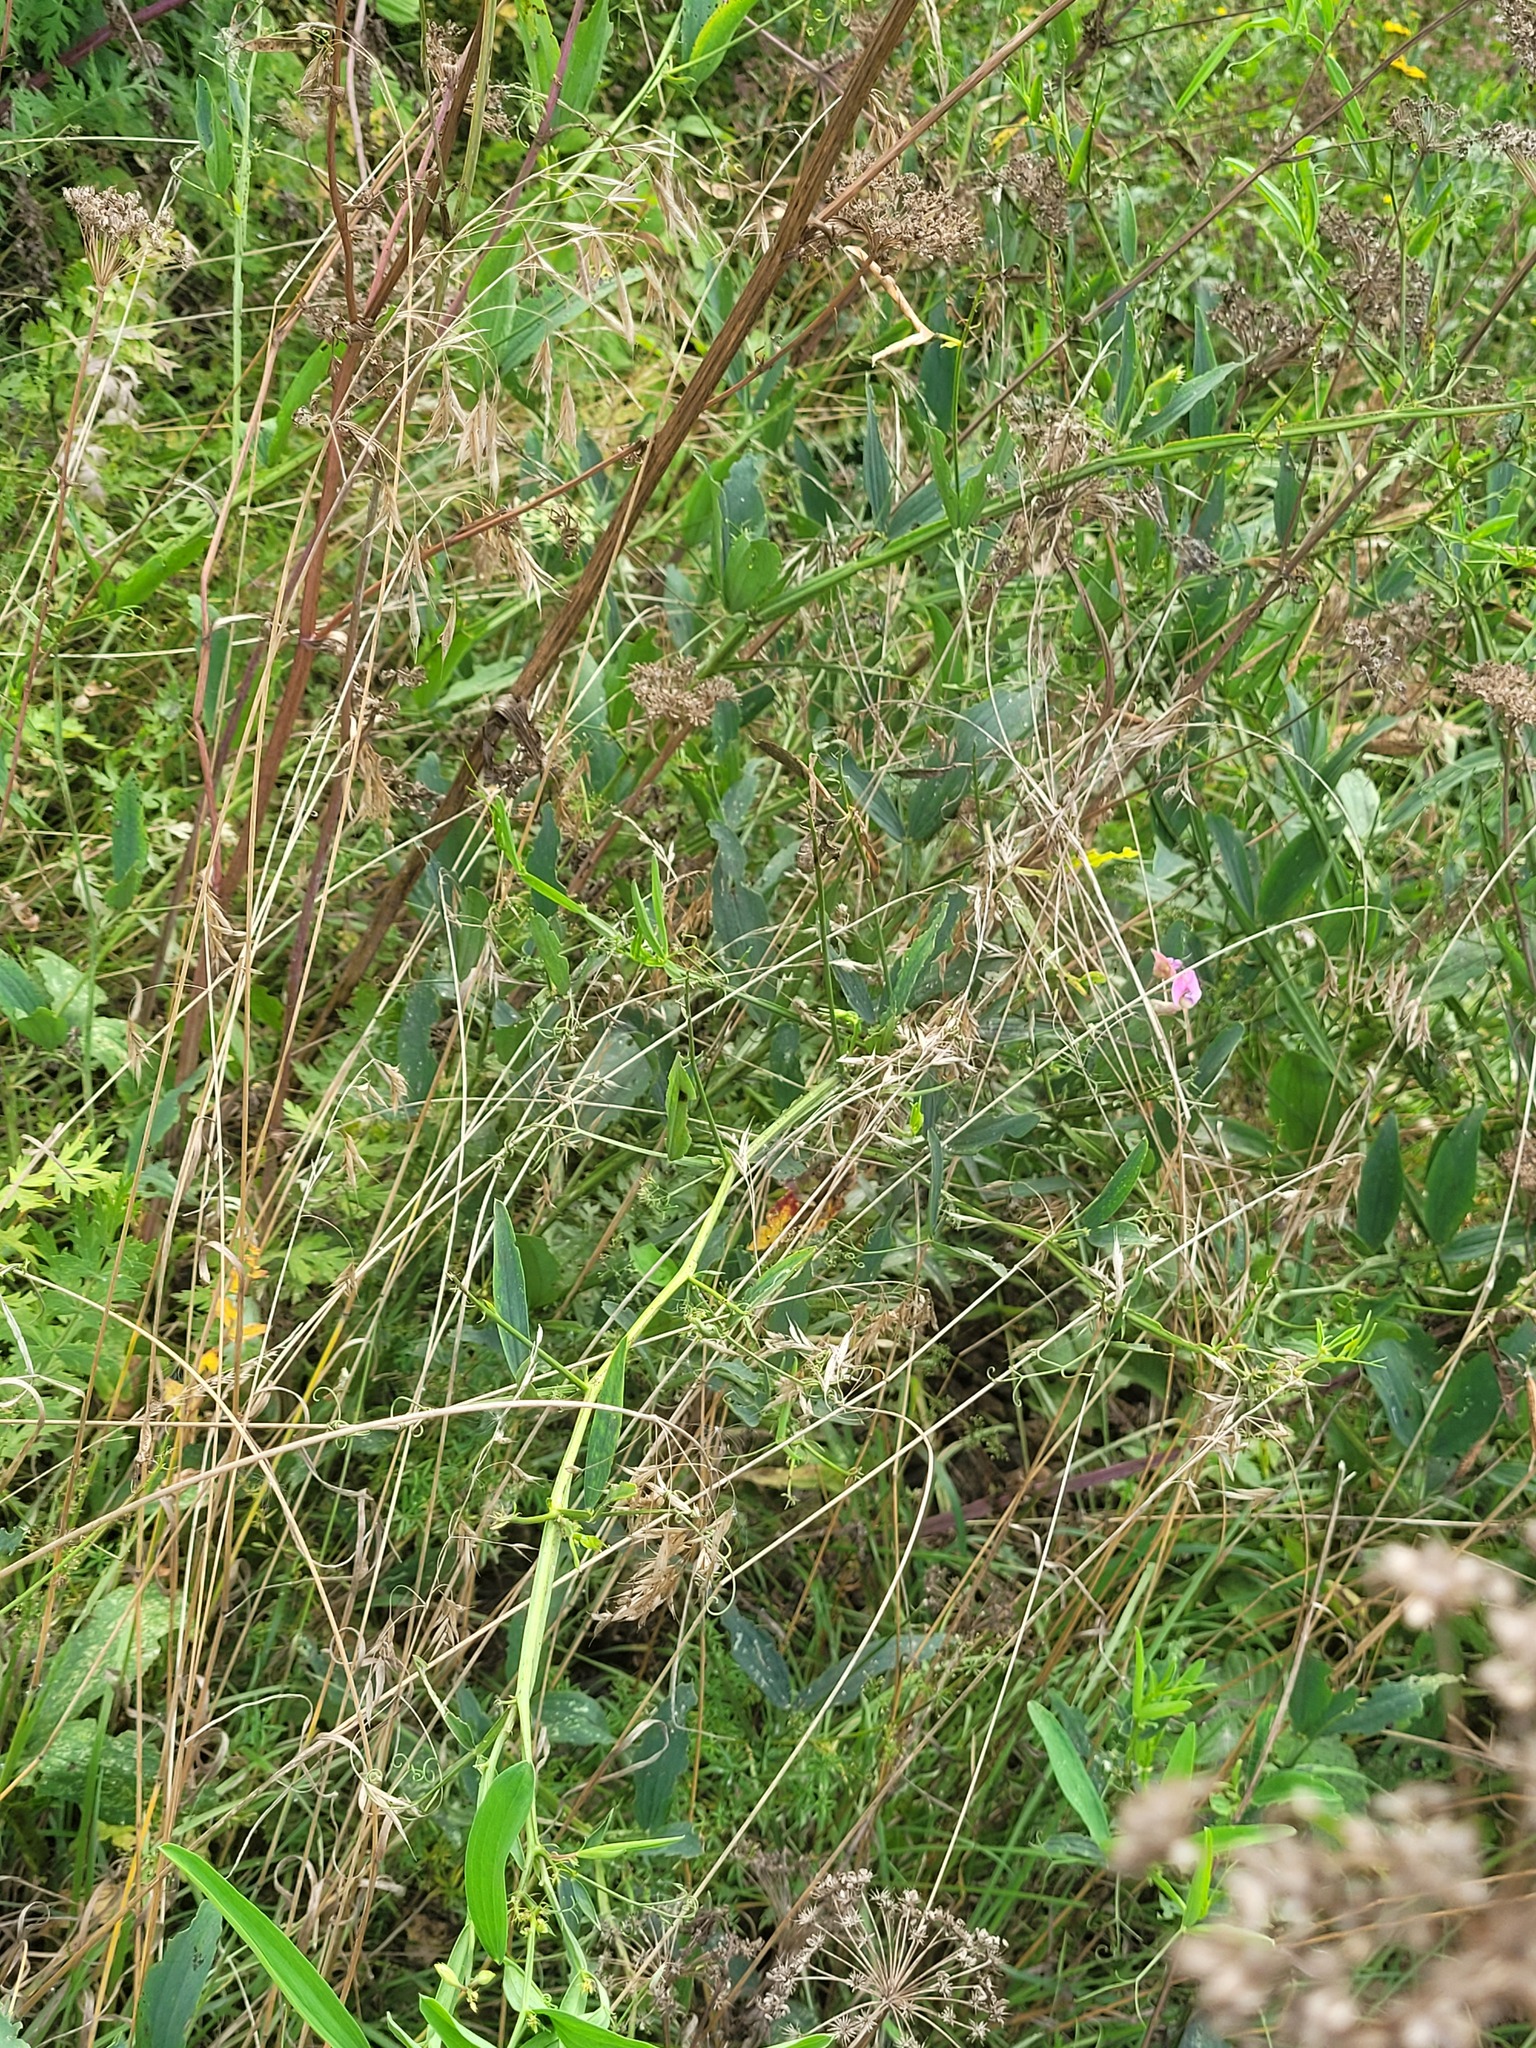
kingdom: Plantae
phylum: Tracheophyta
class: Magnoliopsida
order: Fabales
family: Fabaceae
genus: Lathyrus
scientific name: Lathyrus sylvestris
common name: Flat pea
